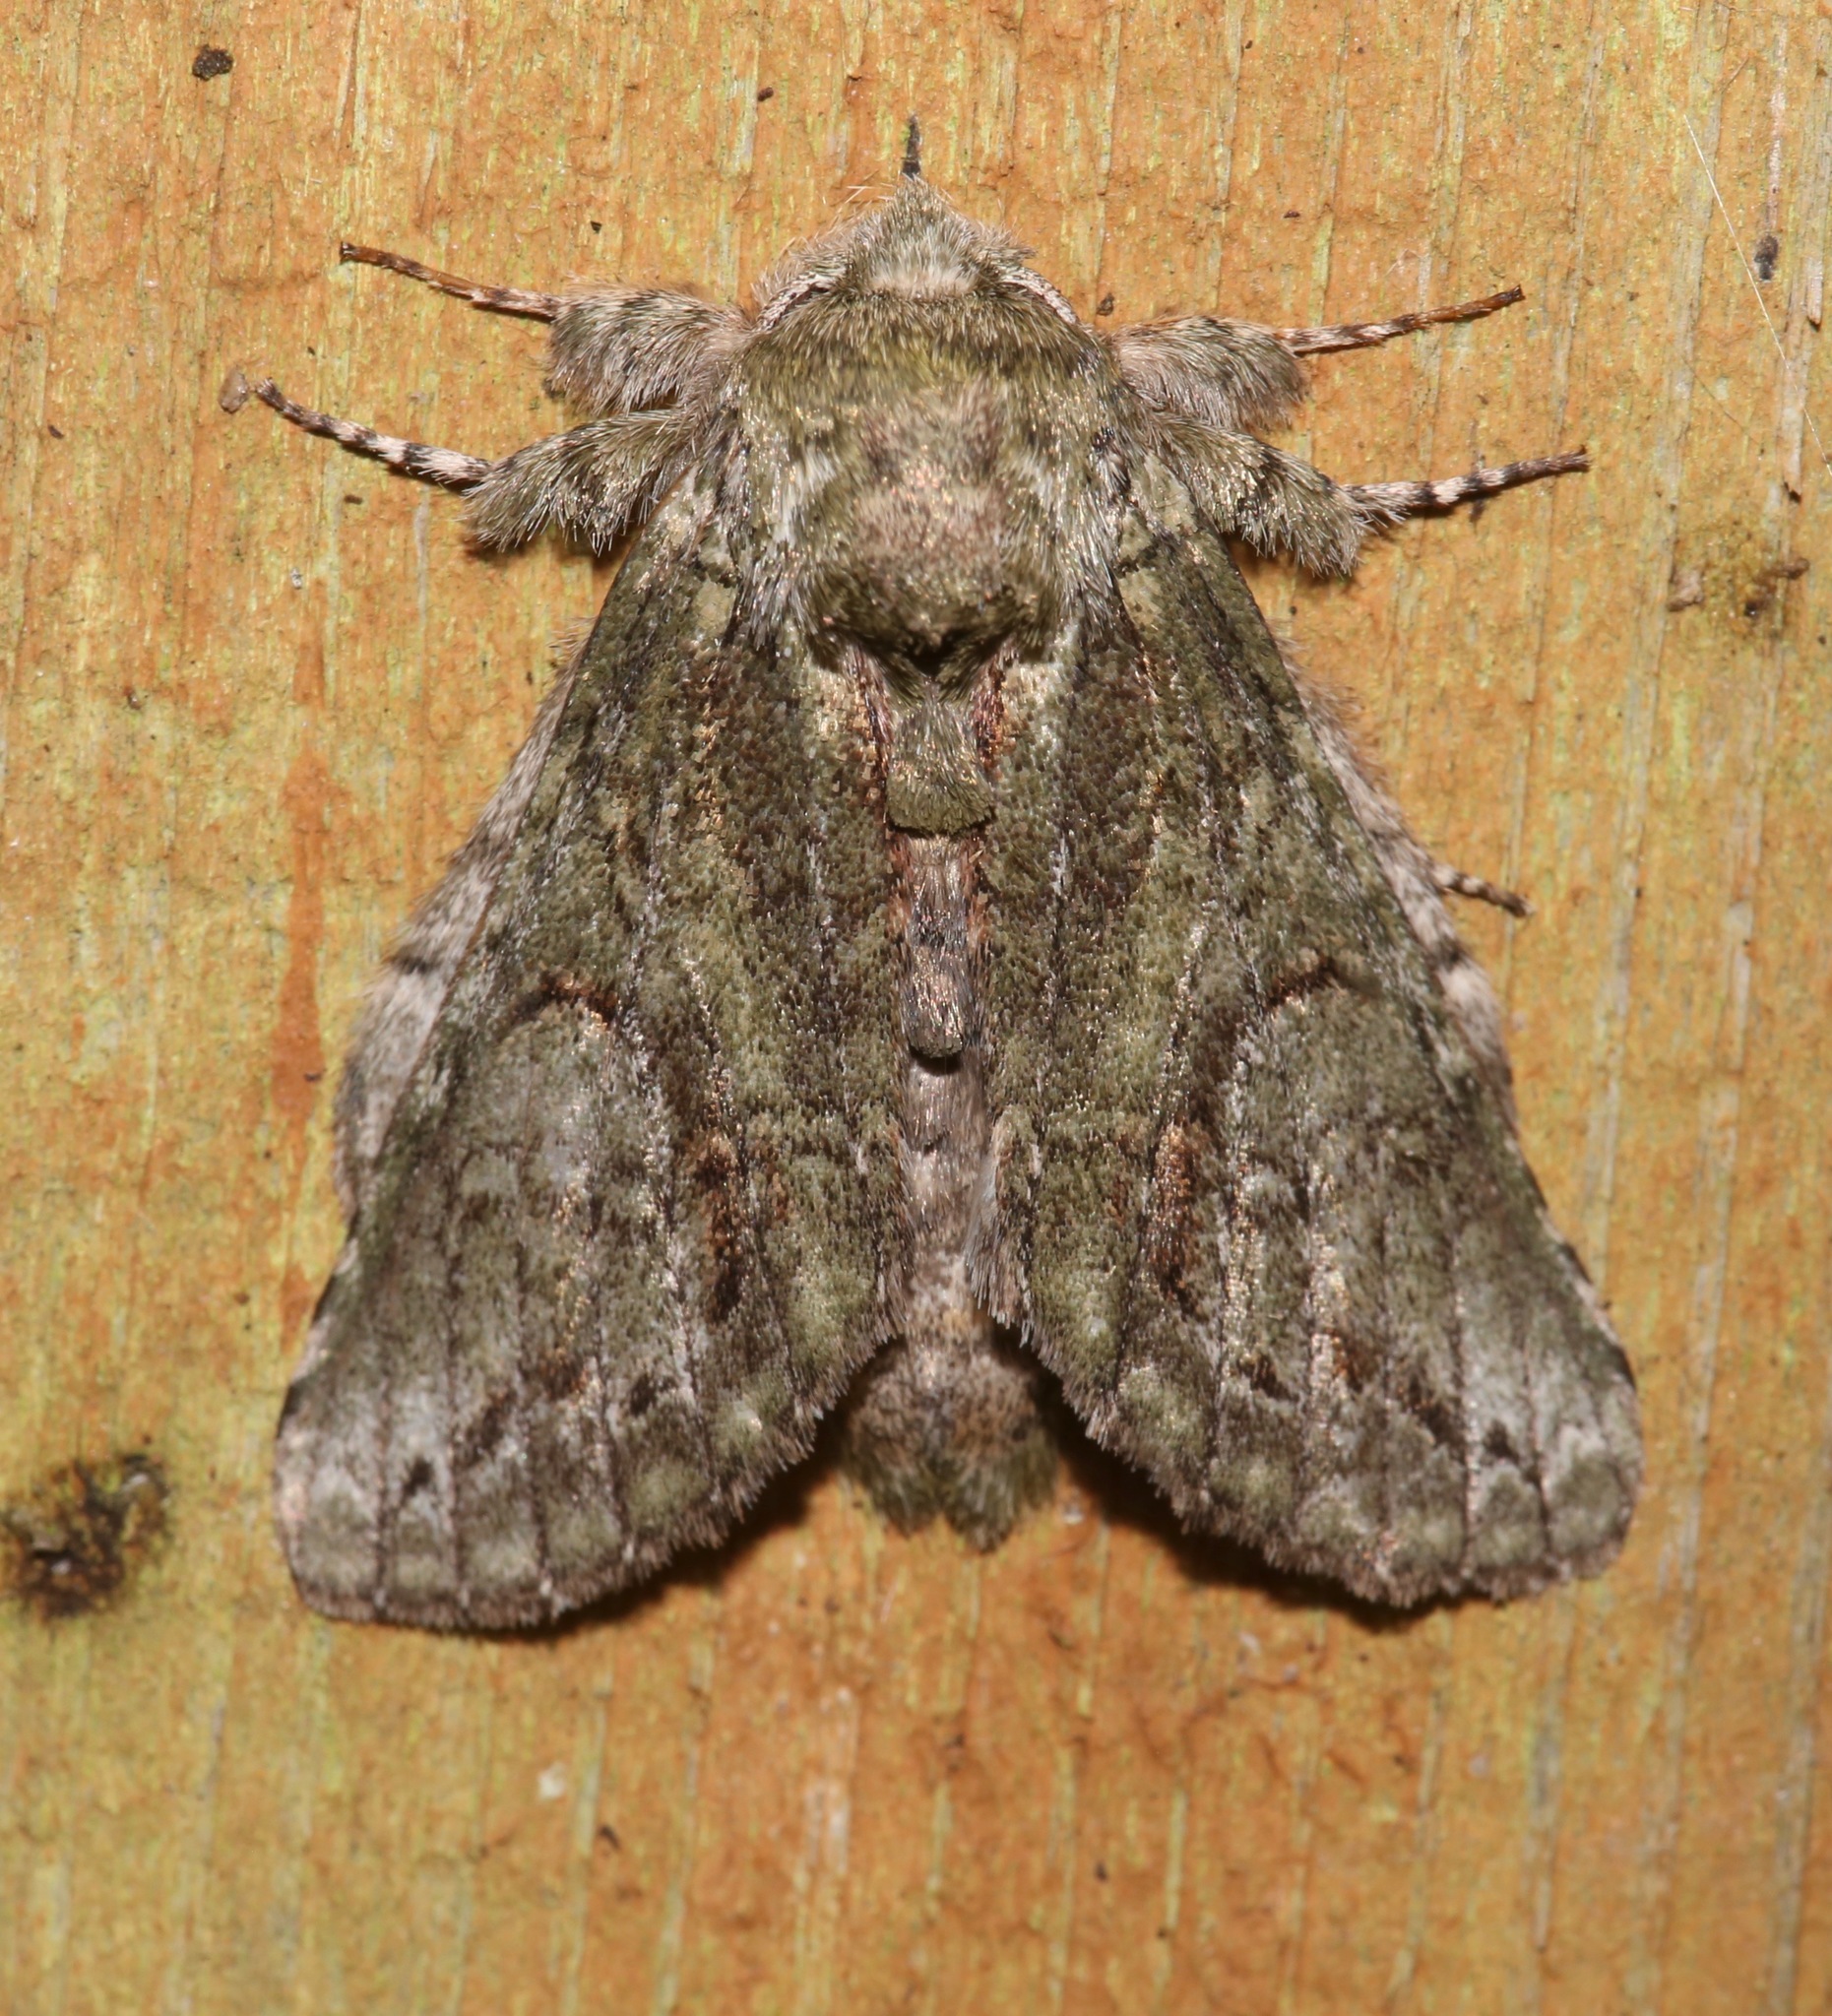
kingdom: Animalia
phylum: Arthropoda
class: Insecta
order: Lepidoptera
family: Notodontidae
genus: Heterocampa
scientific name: Heterocampa umbrata
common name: White-blotched heterocampa
